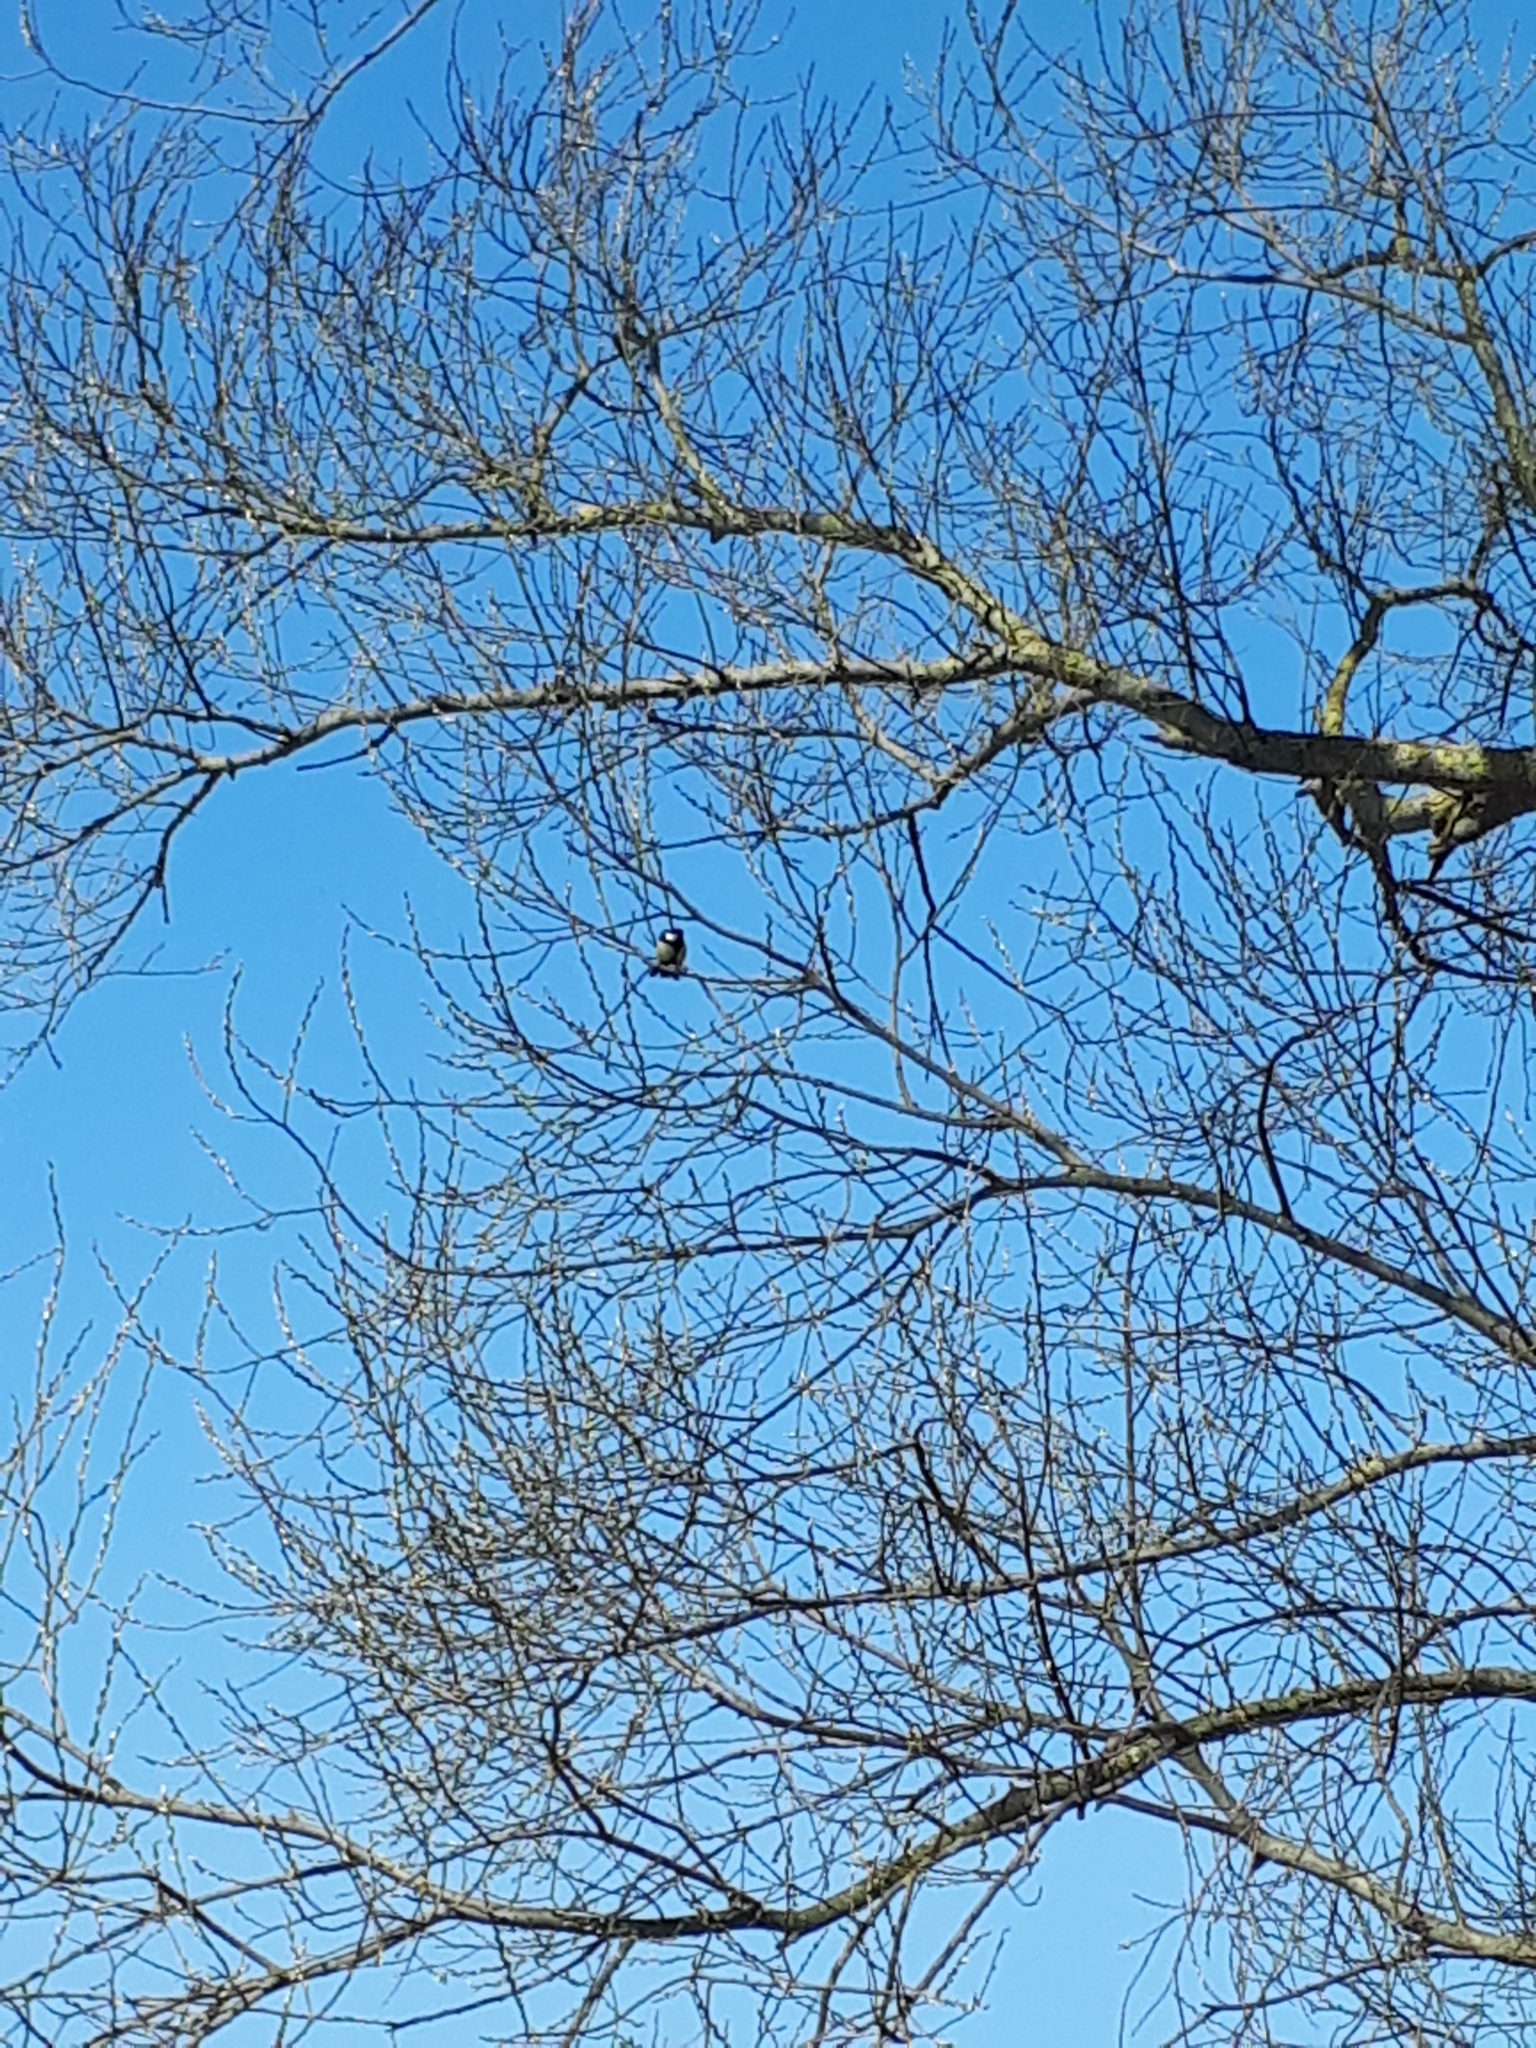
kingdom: Animalia
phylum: Chordata
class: Aves
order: Passeriformes
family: Paridae
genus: Parus
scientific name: Parus major
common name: Great tit
